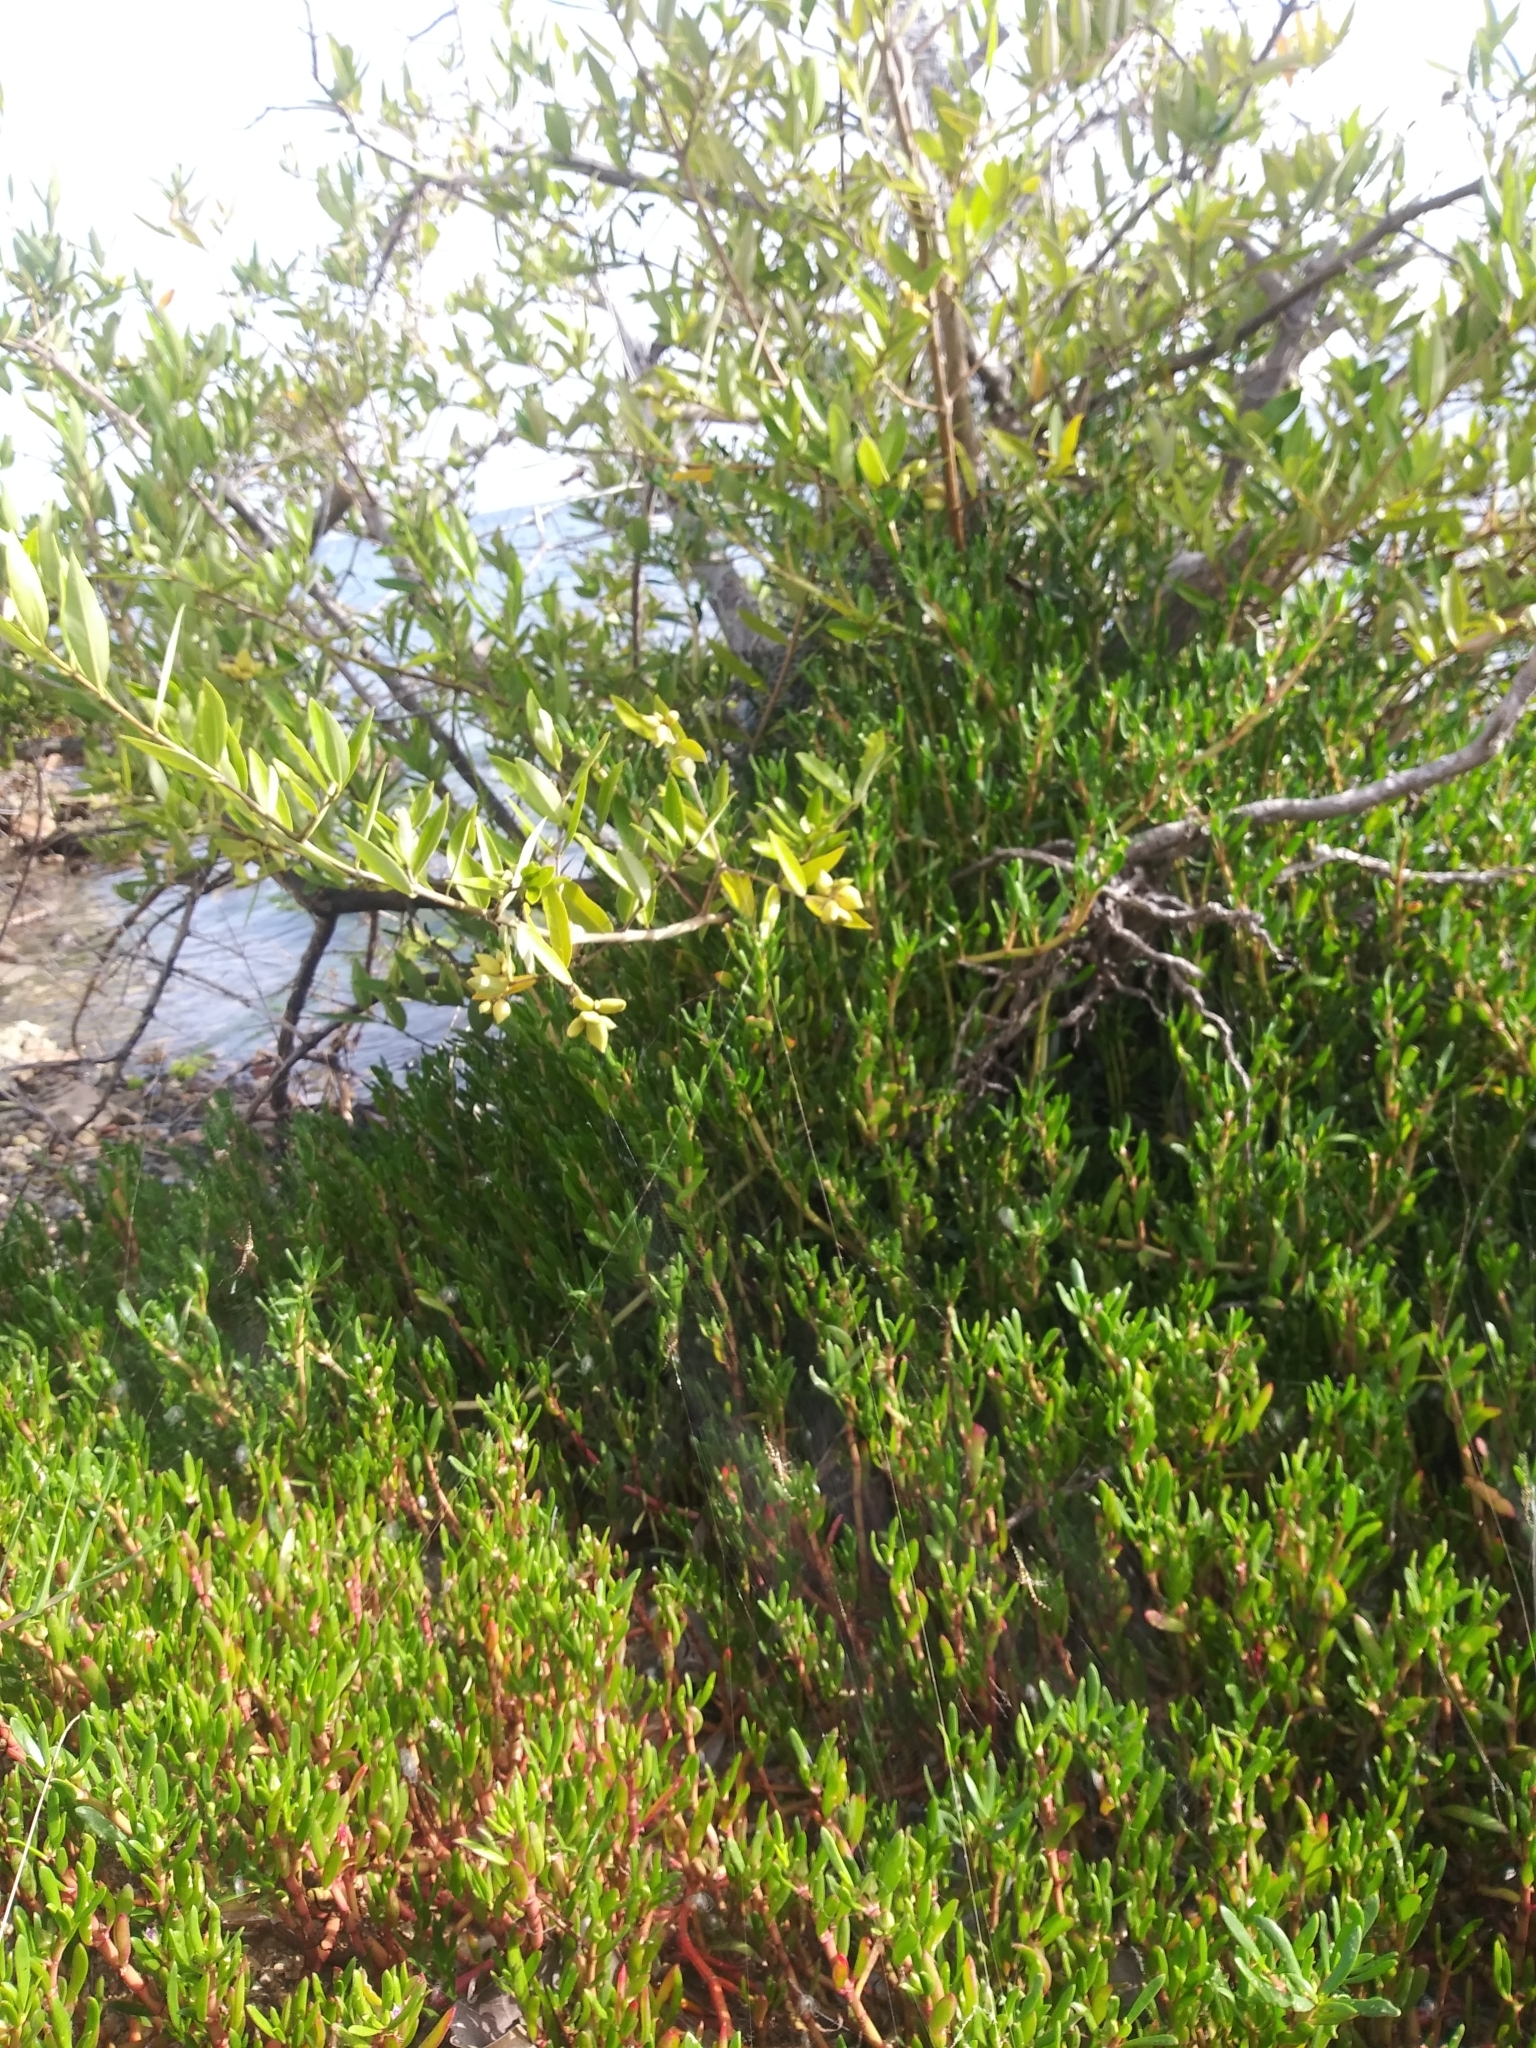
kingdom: Plantae
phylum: Tracheophyta
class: Magnoliopsida
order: Lamiales
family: Acanthaceae
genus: Avicennia
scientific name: Avicennia germinans
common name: Black mangrove
